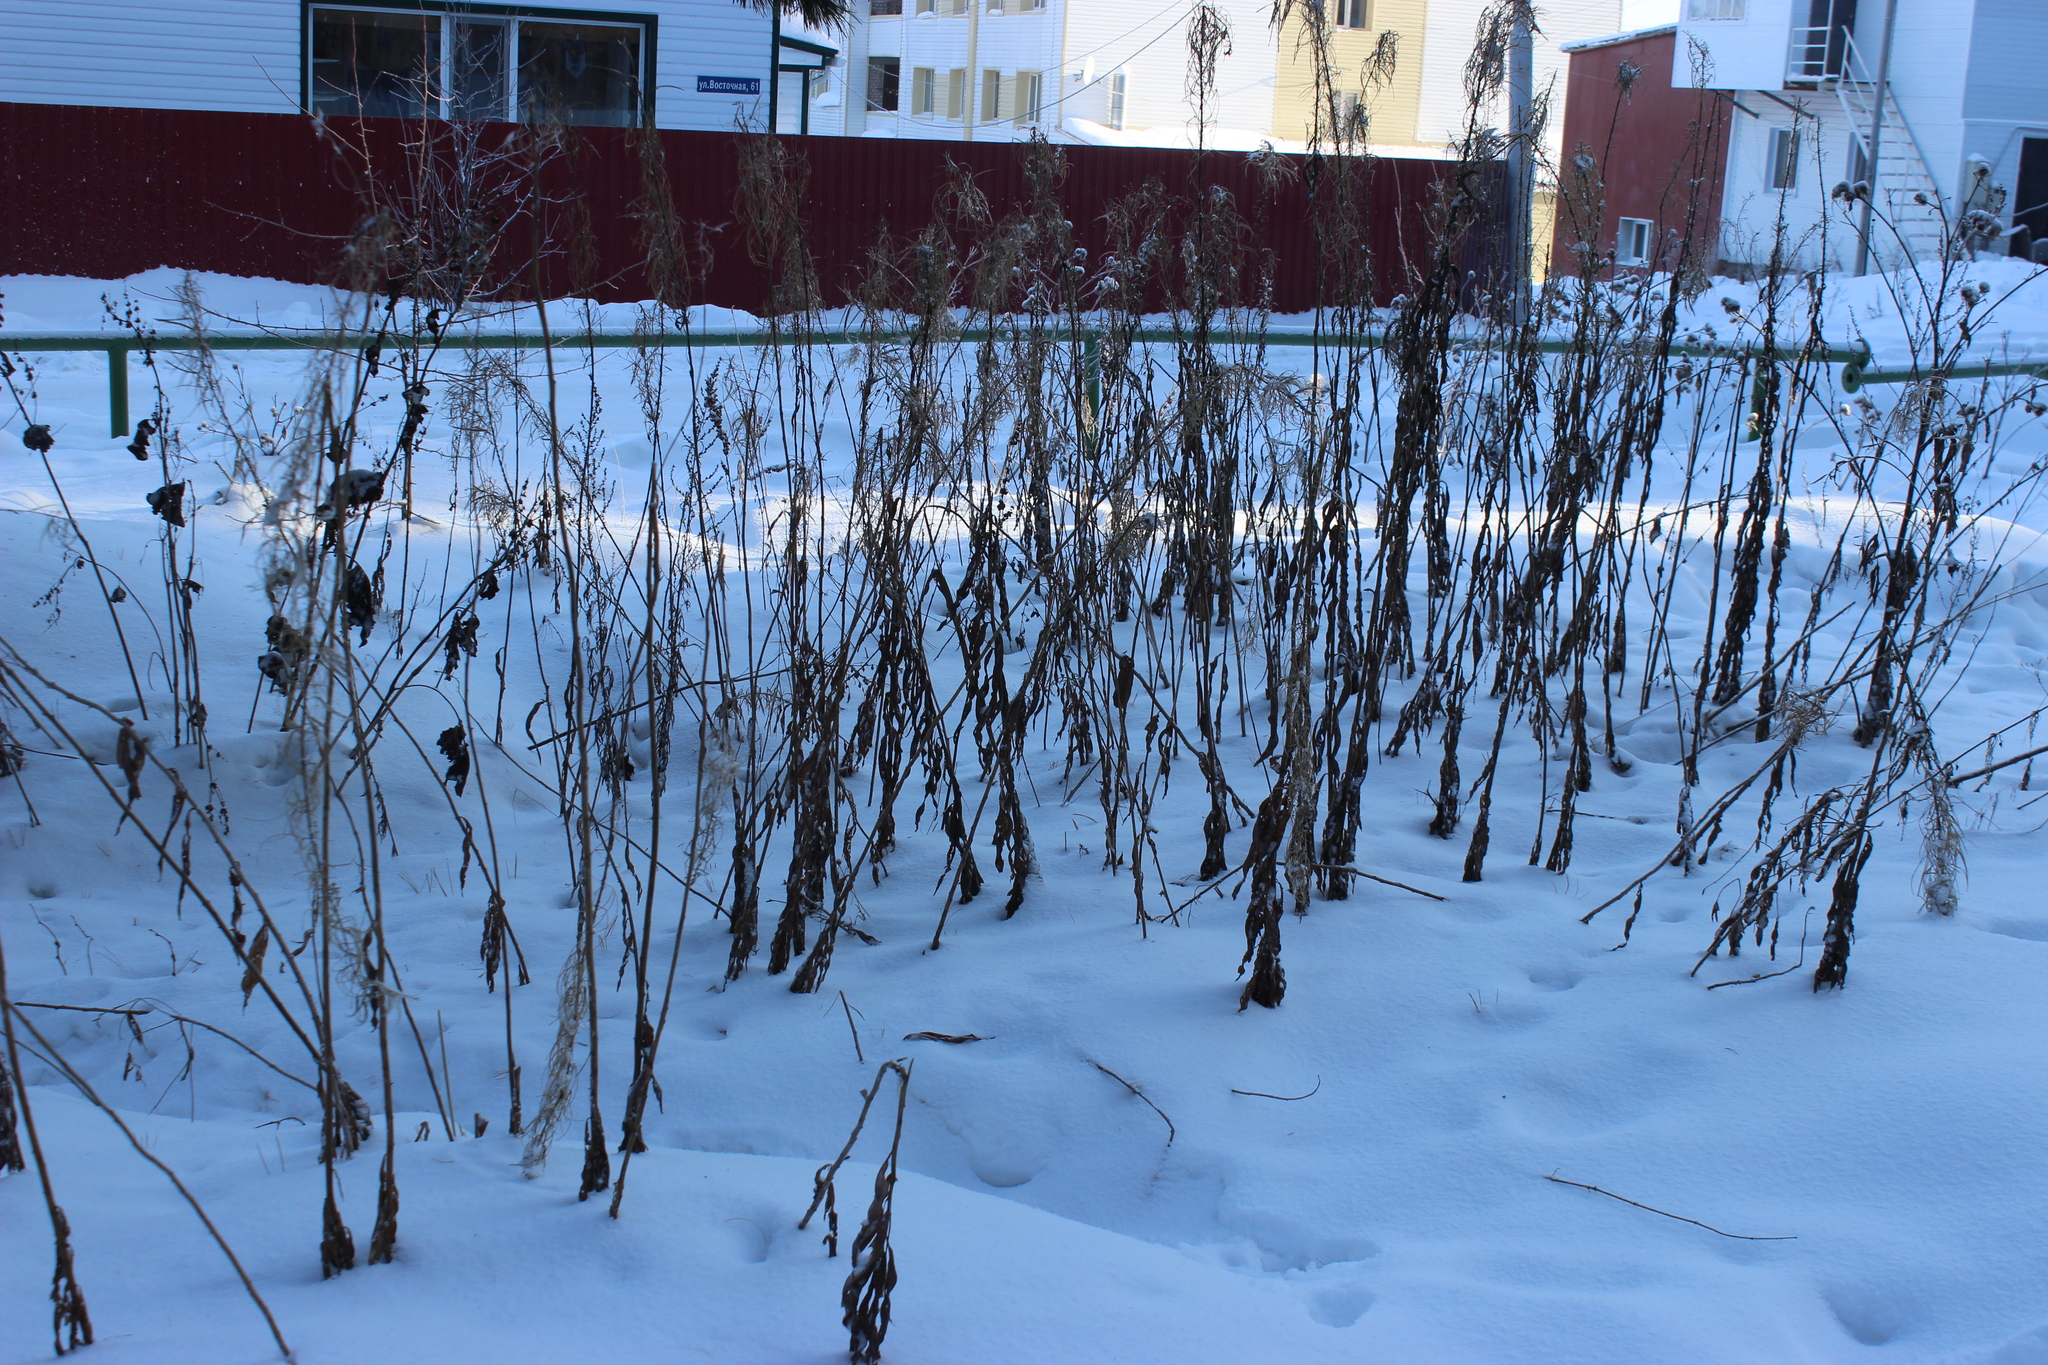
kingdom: Plantae
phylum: Tracheophyta
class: Magnoliopsida
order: Myrtales
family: Onagraceae
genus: Chamaenerion
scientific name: Chamaenerion angustifolium
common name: Fireweed
